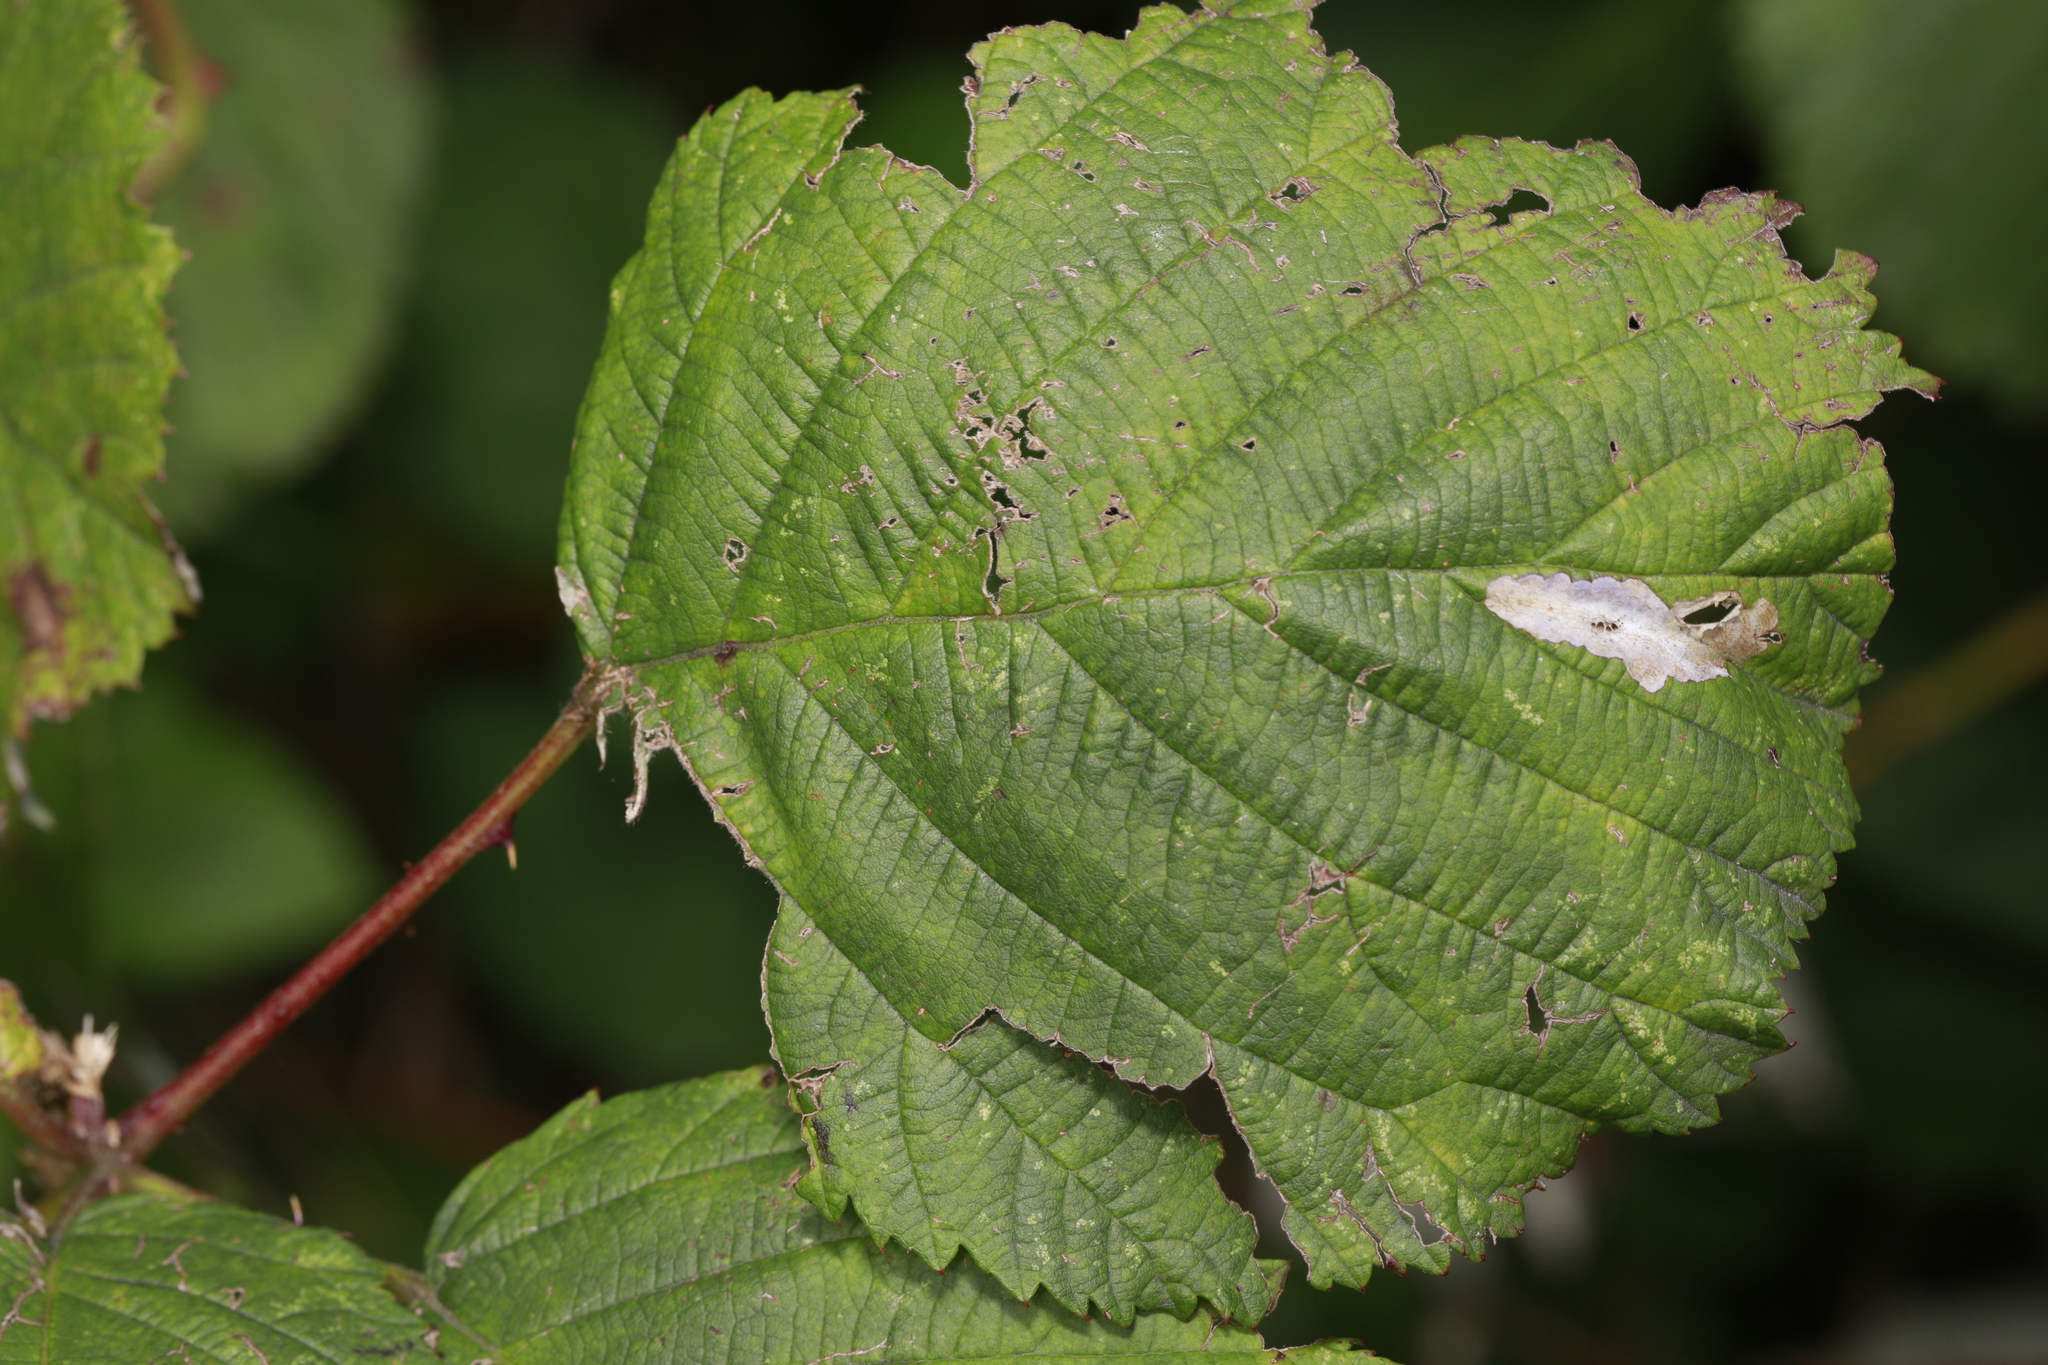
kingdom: Animalia
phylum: Arthropoda
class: Insecta
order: Lepidoptera
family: Tischeriidae
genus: Coptotriche
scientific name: Coptotriche marginea
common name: Bordered carl
